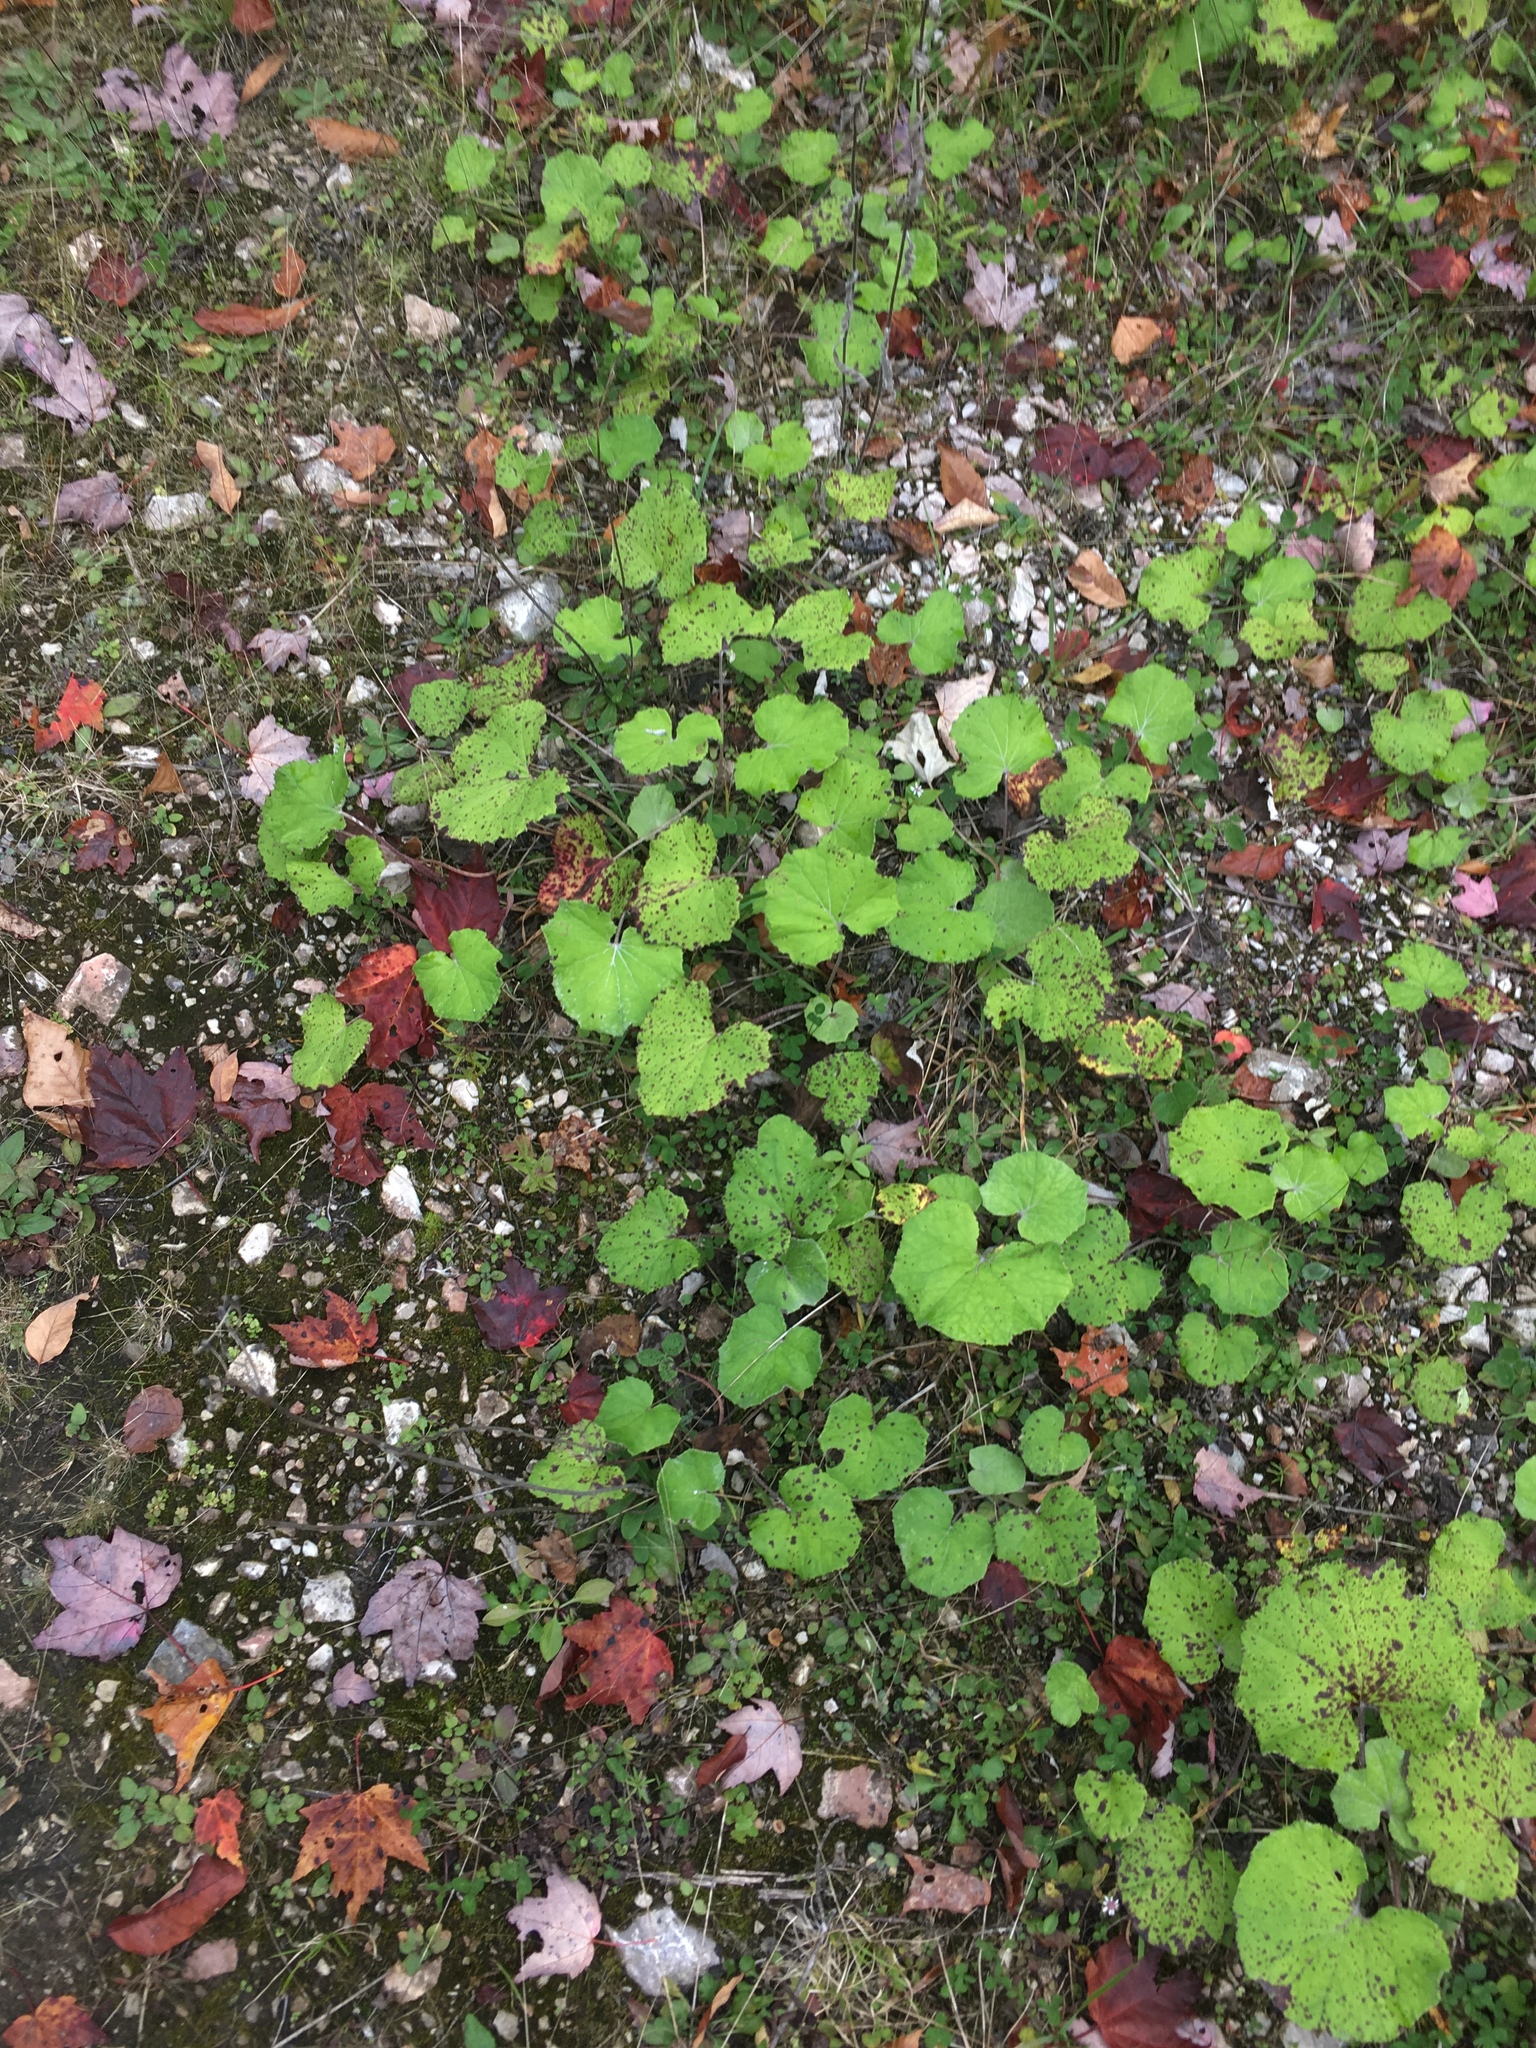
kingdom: Plantae
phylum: Tracheophyta
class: Magnoliopsida
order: Asterales
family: Asteraceae
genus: Tussilago
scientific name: Tussilago farfara
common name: Coltsfoot
